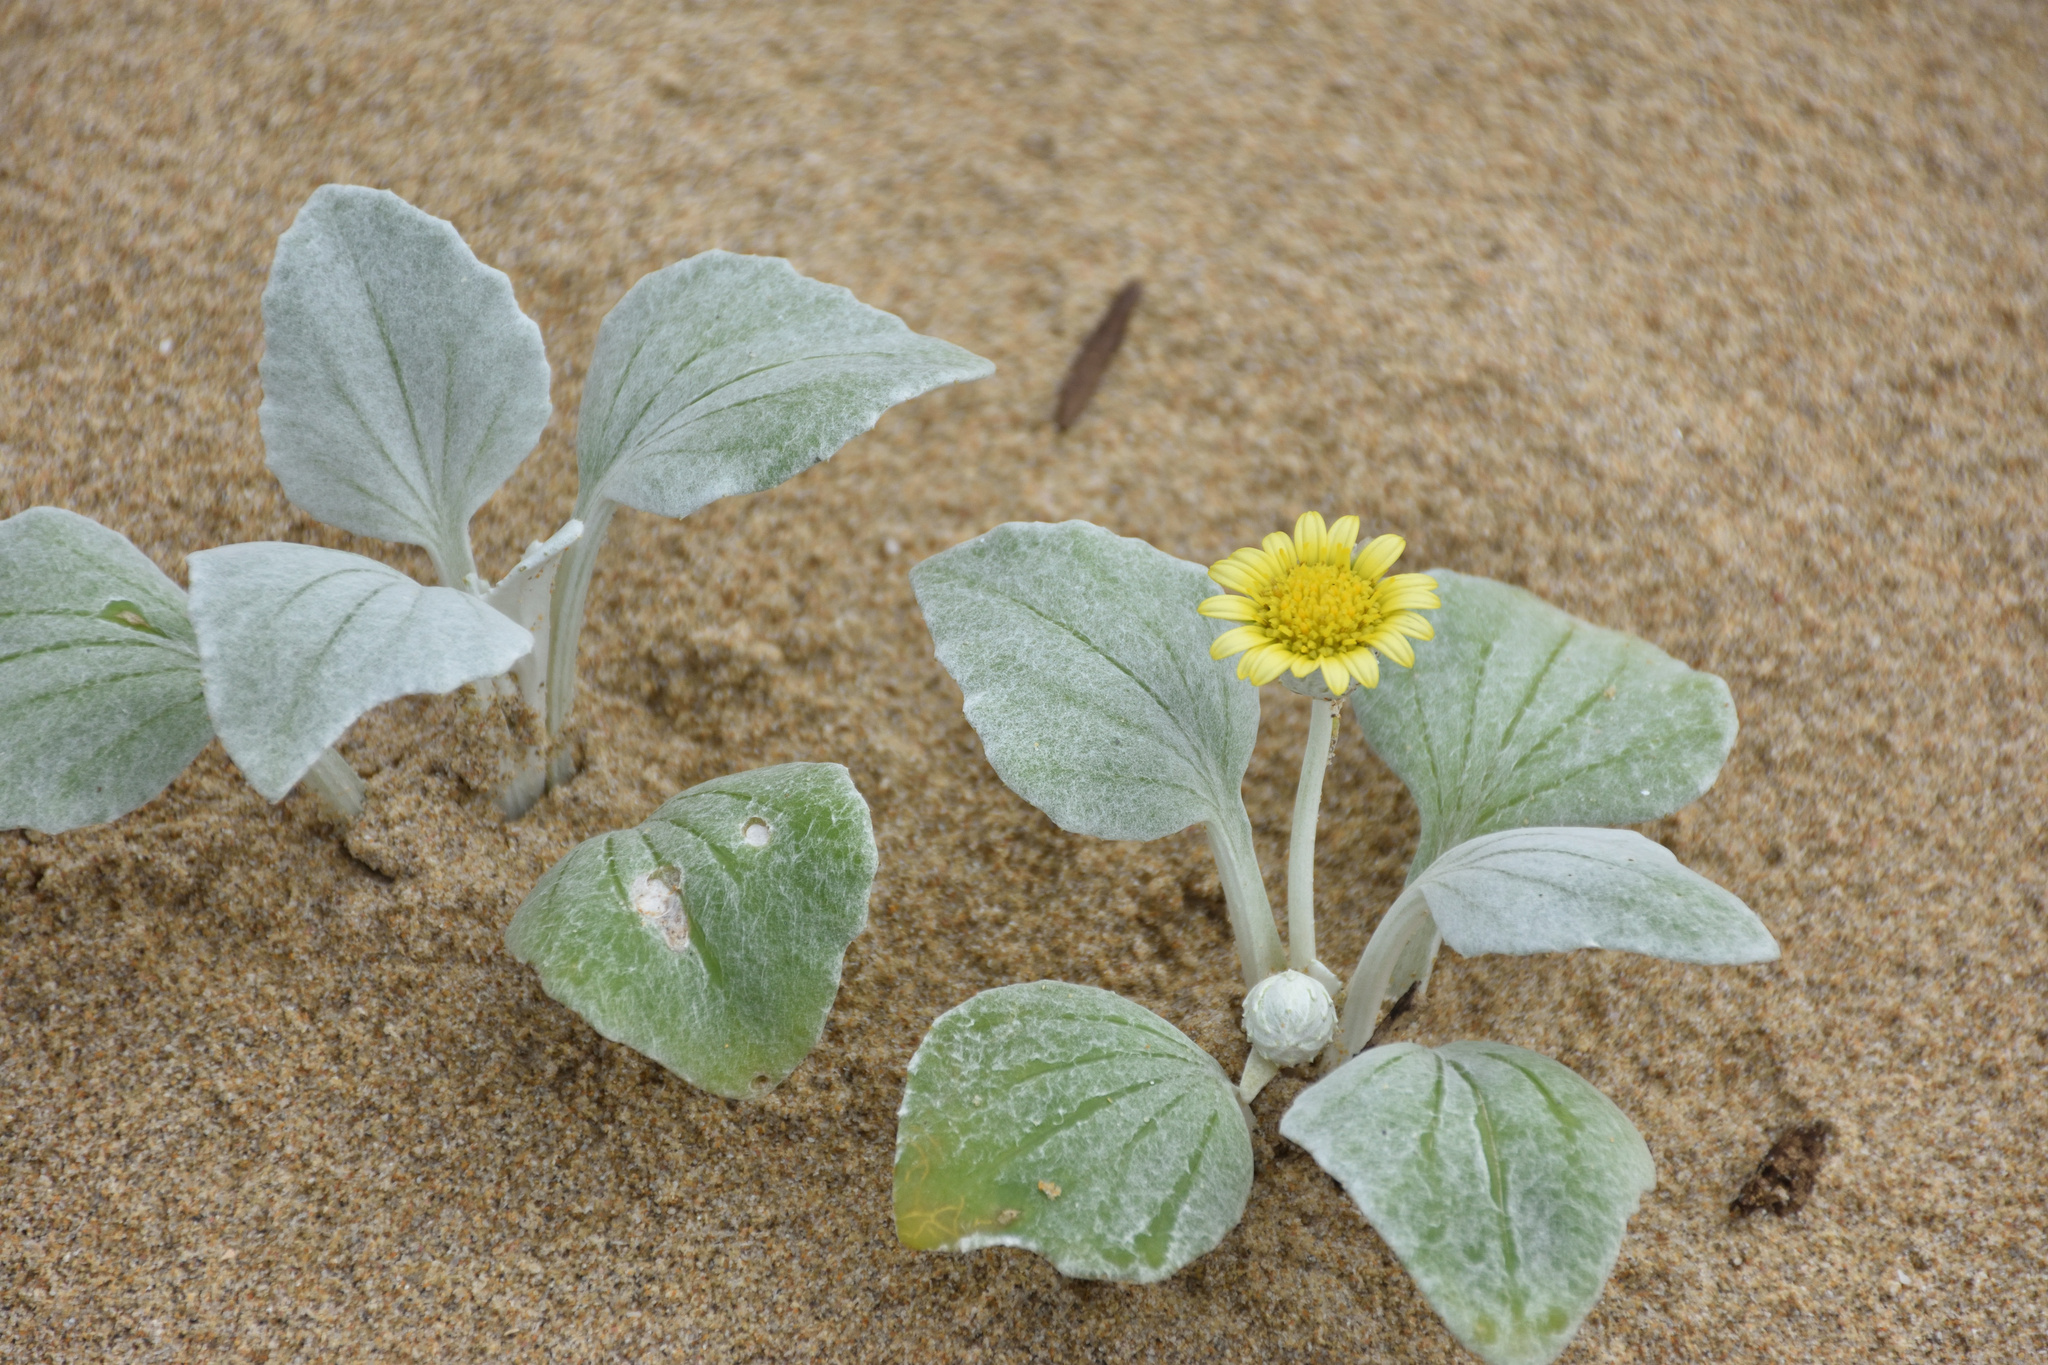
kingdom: Plantae
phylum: Tracheophyta
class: Magnoliopsida
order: Asterales
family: Asteraceae
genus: Arctotheca
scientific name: Arctotheca populifolia
